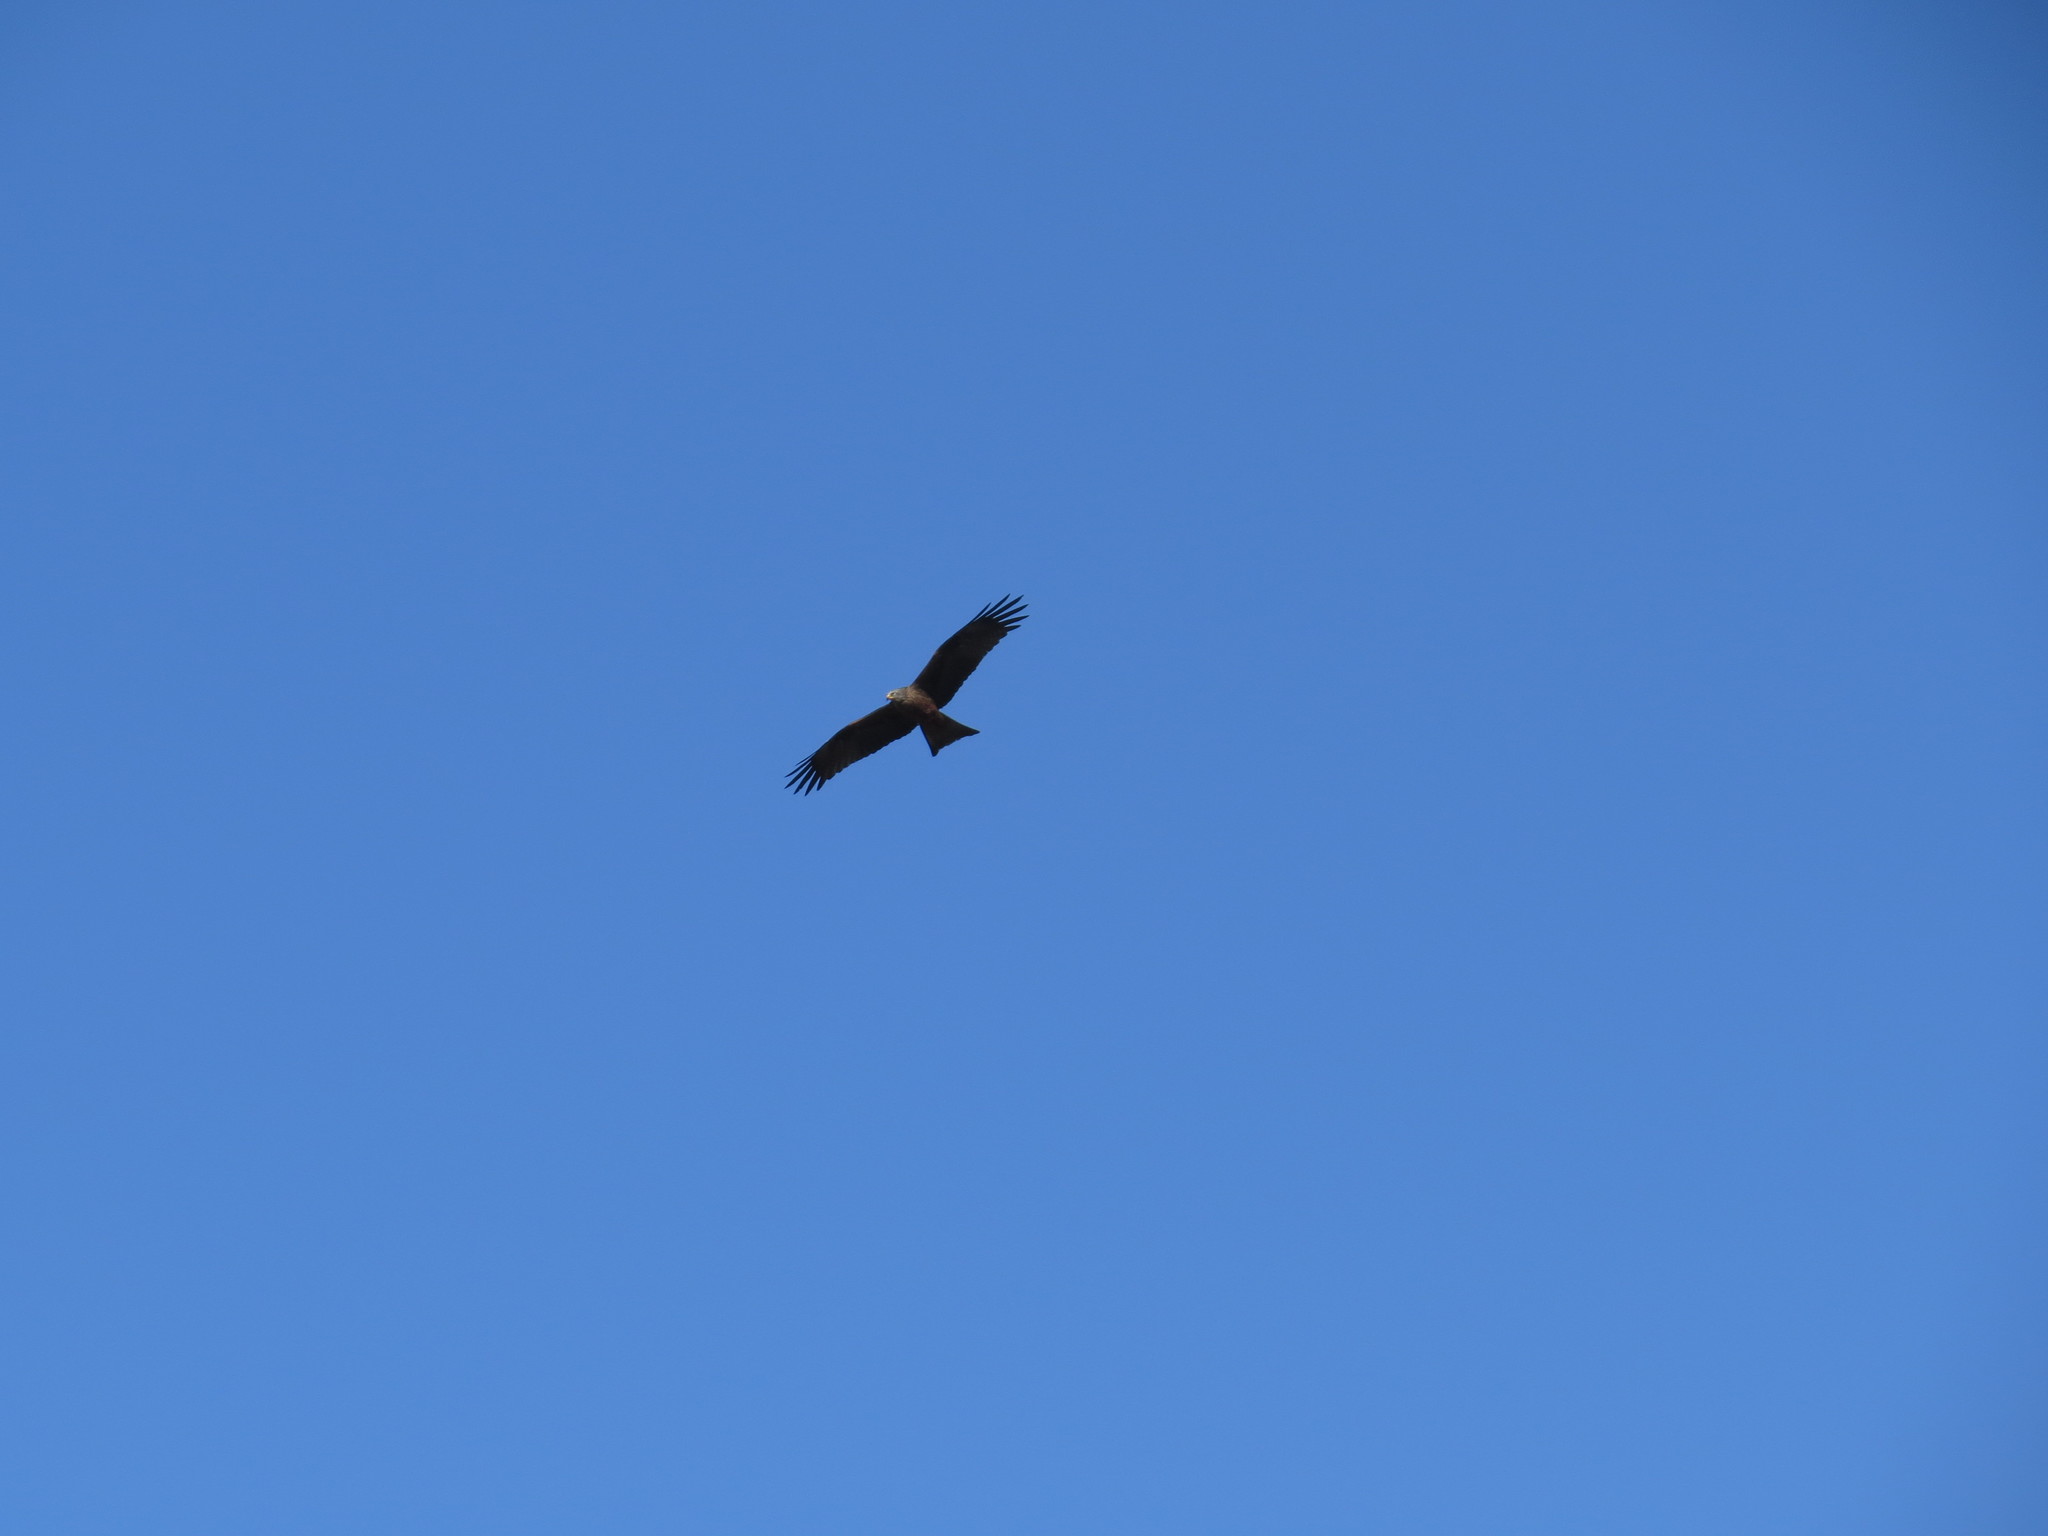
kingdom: Animalia
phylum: Chordata
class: Aves
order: Accipitriformes
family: Accipitridae
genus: Milvus
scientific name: Milvus migrans
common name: Black kite
